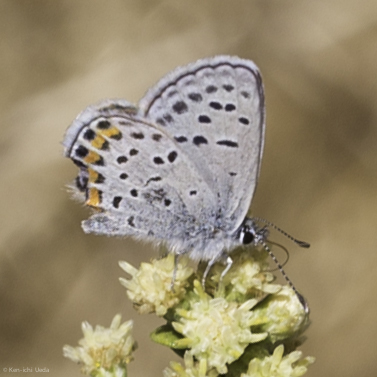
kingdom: Animalia
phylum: Arthropoda
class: Insecta
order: Lepidoptera
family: Lycaenidae
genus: Icaricia
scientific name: Icaricia acmon
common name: Acmon blue
